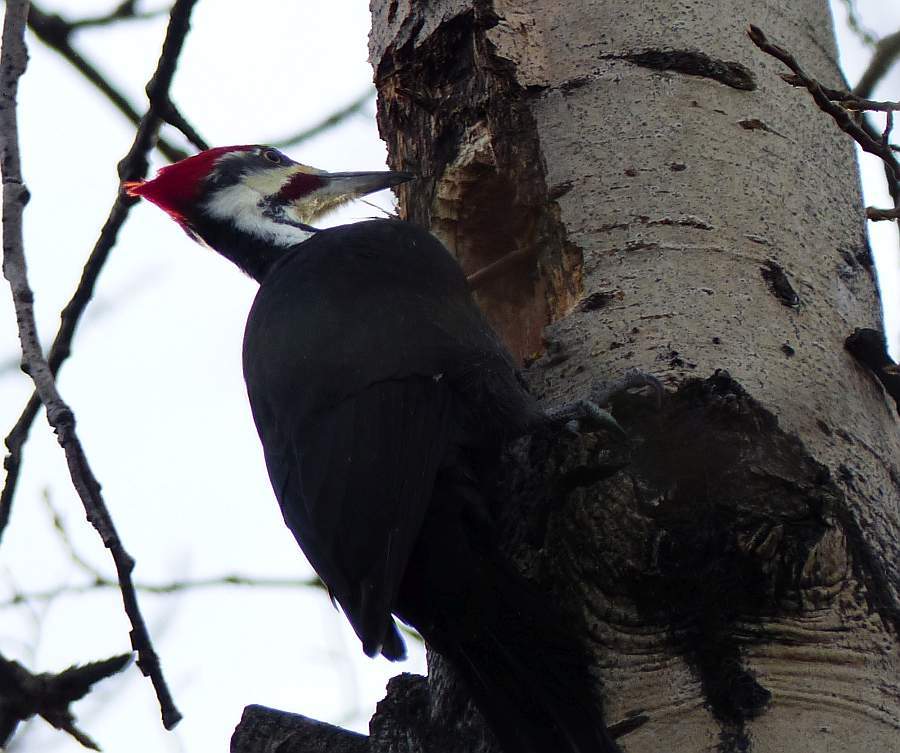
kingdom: Animalia
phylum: Chordata
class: Aves
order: Piciformes
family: Picidae
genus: Dryocopus
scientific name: Dryocopus pileatus
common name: Pileated woodpecker
